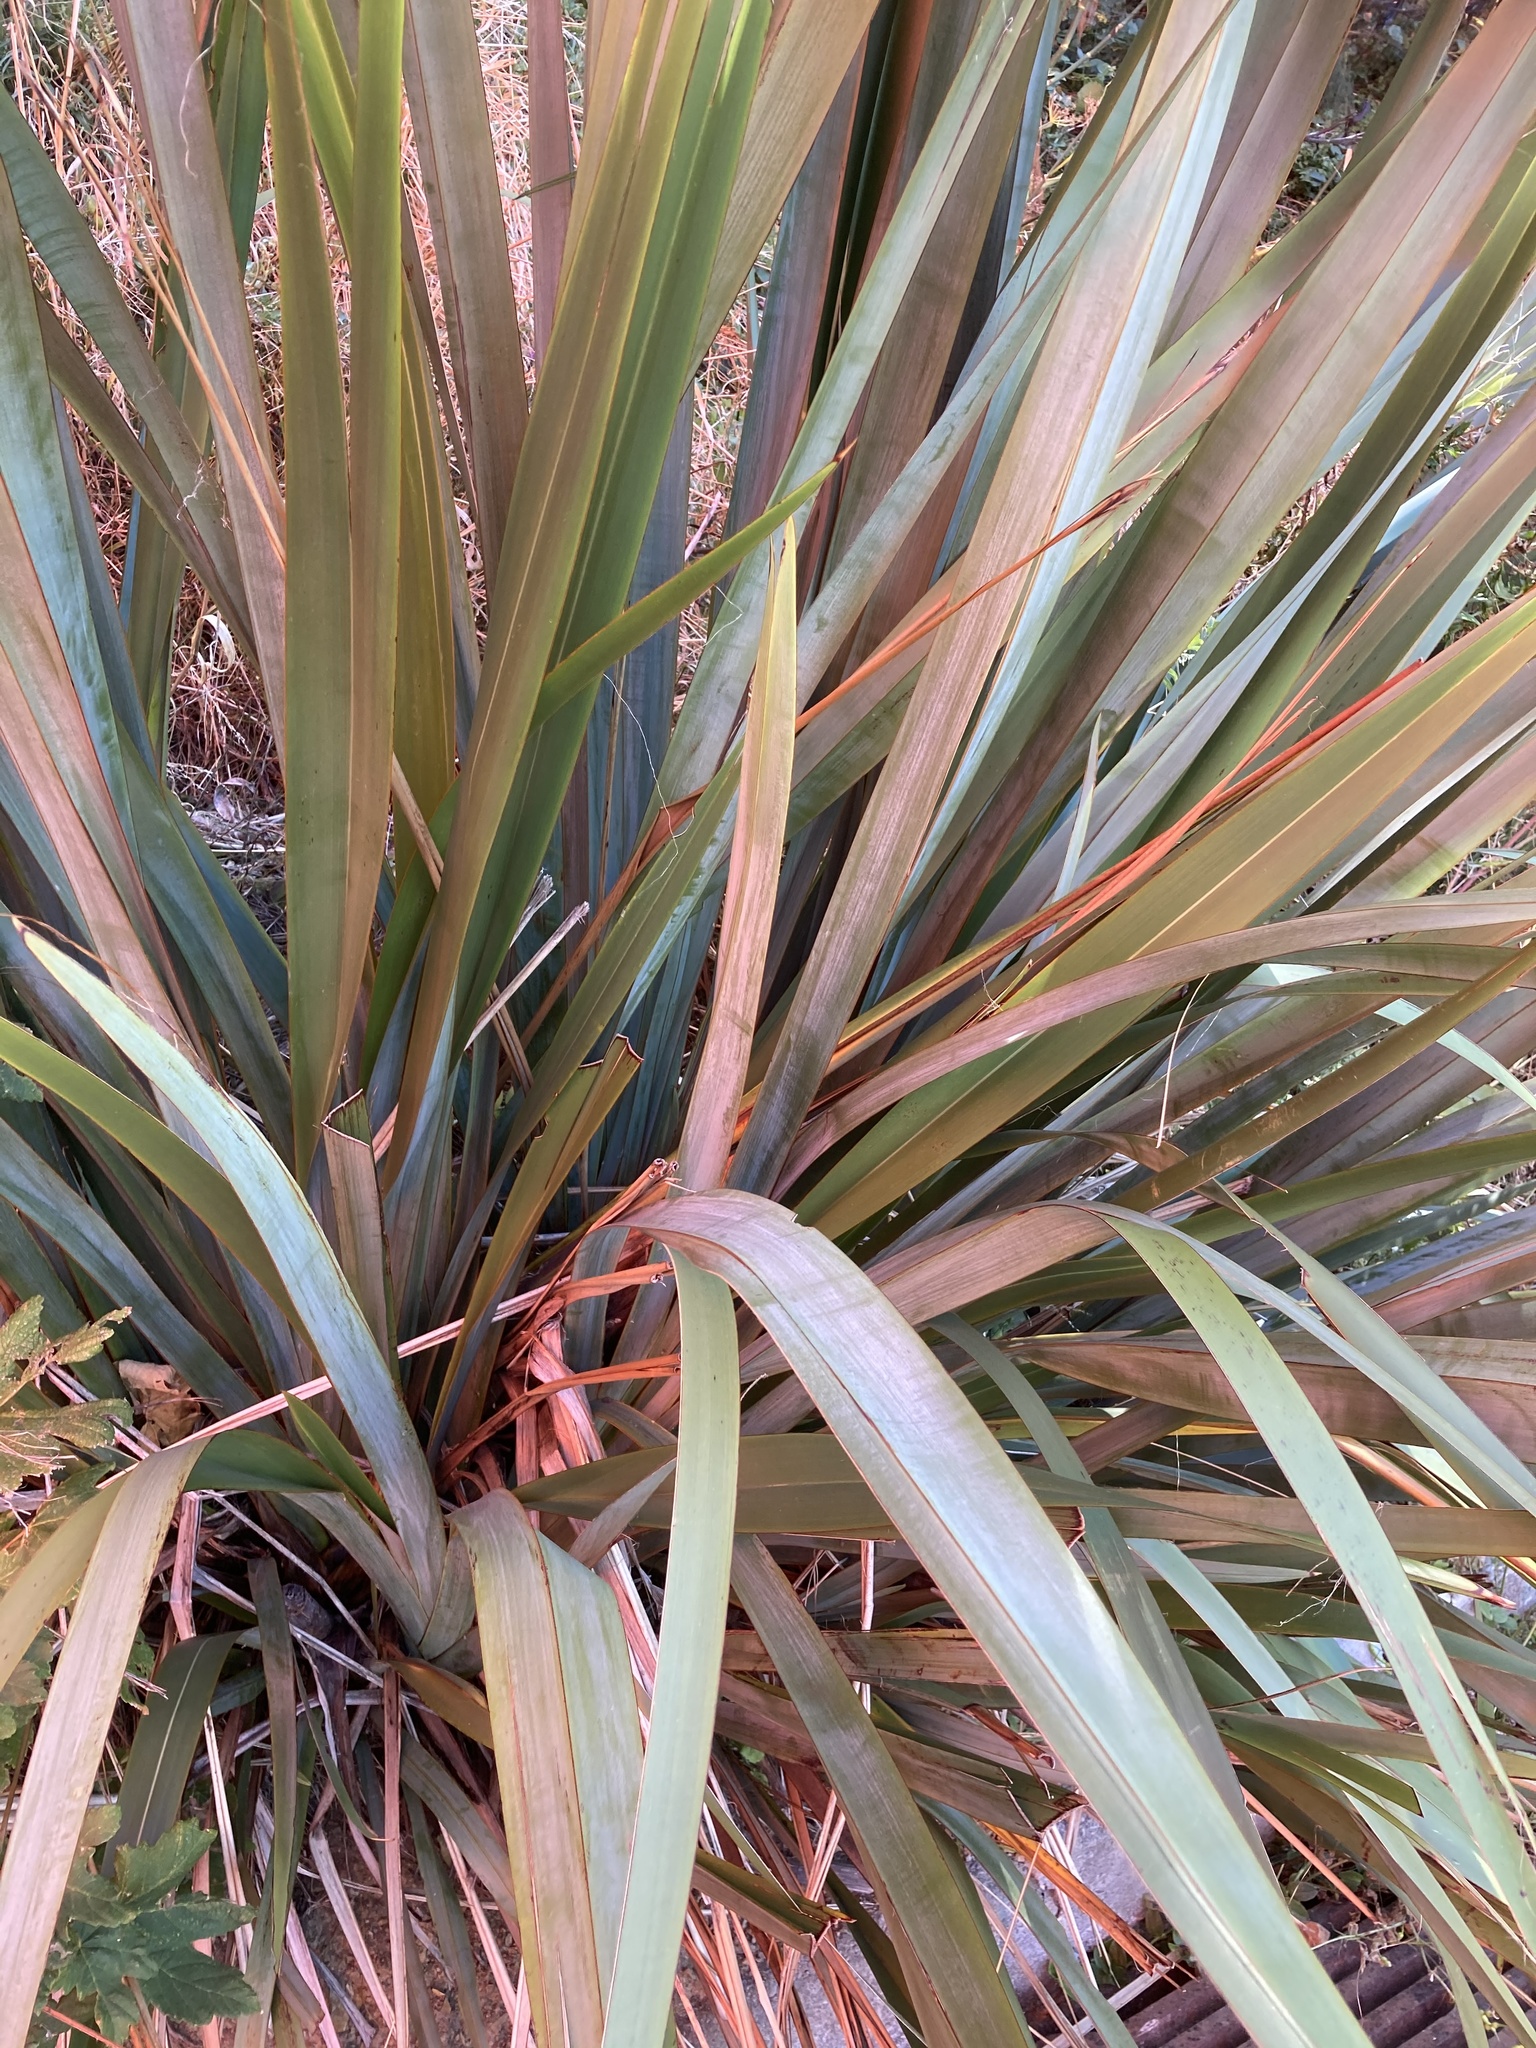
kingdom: Plantae
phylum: Tracheophyta
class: Liliopsida
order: Asparagales
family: Asphodelaceae
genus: Phormium
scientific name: Phormium tenax
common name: New zealand flax
